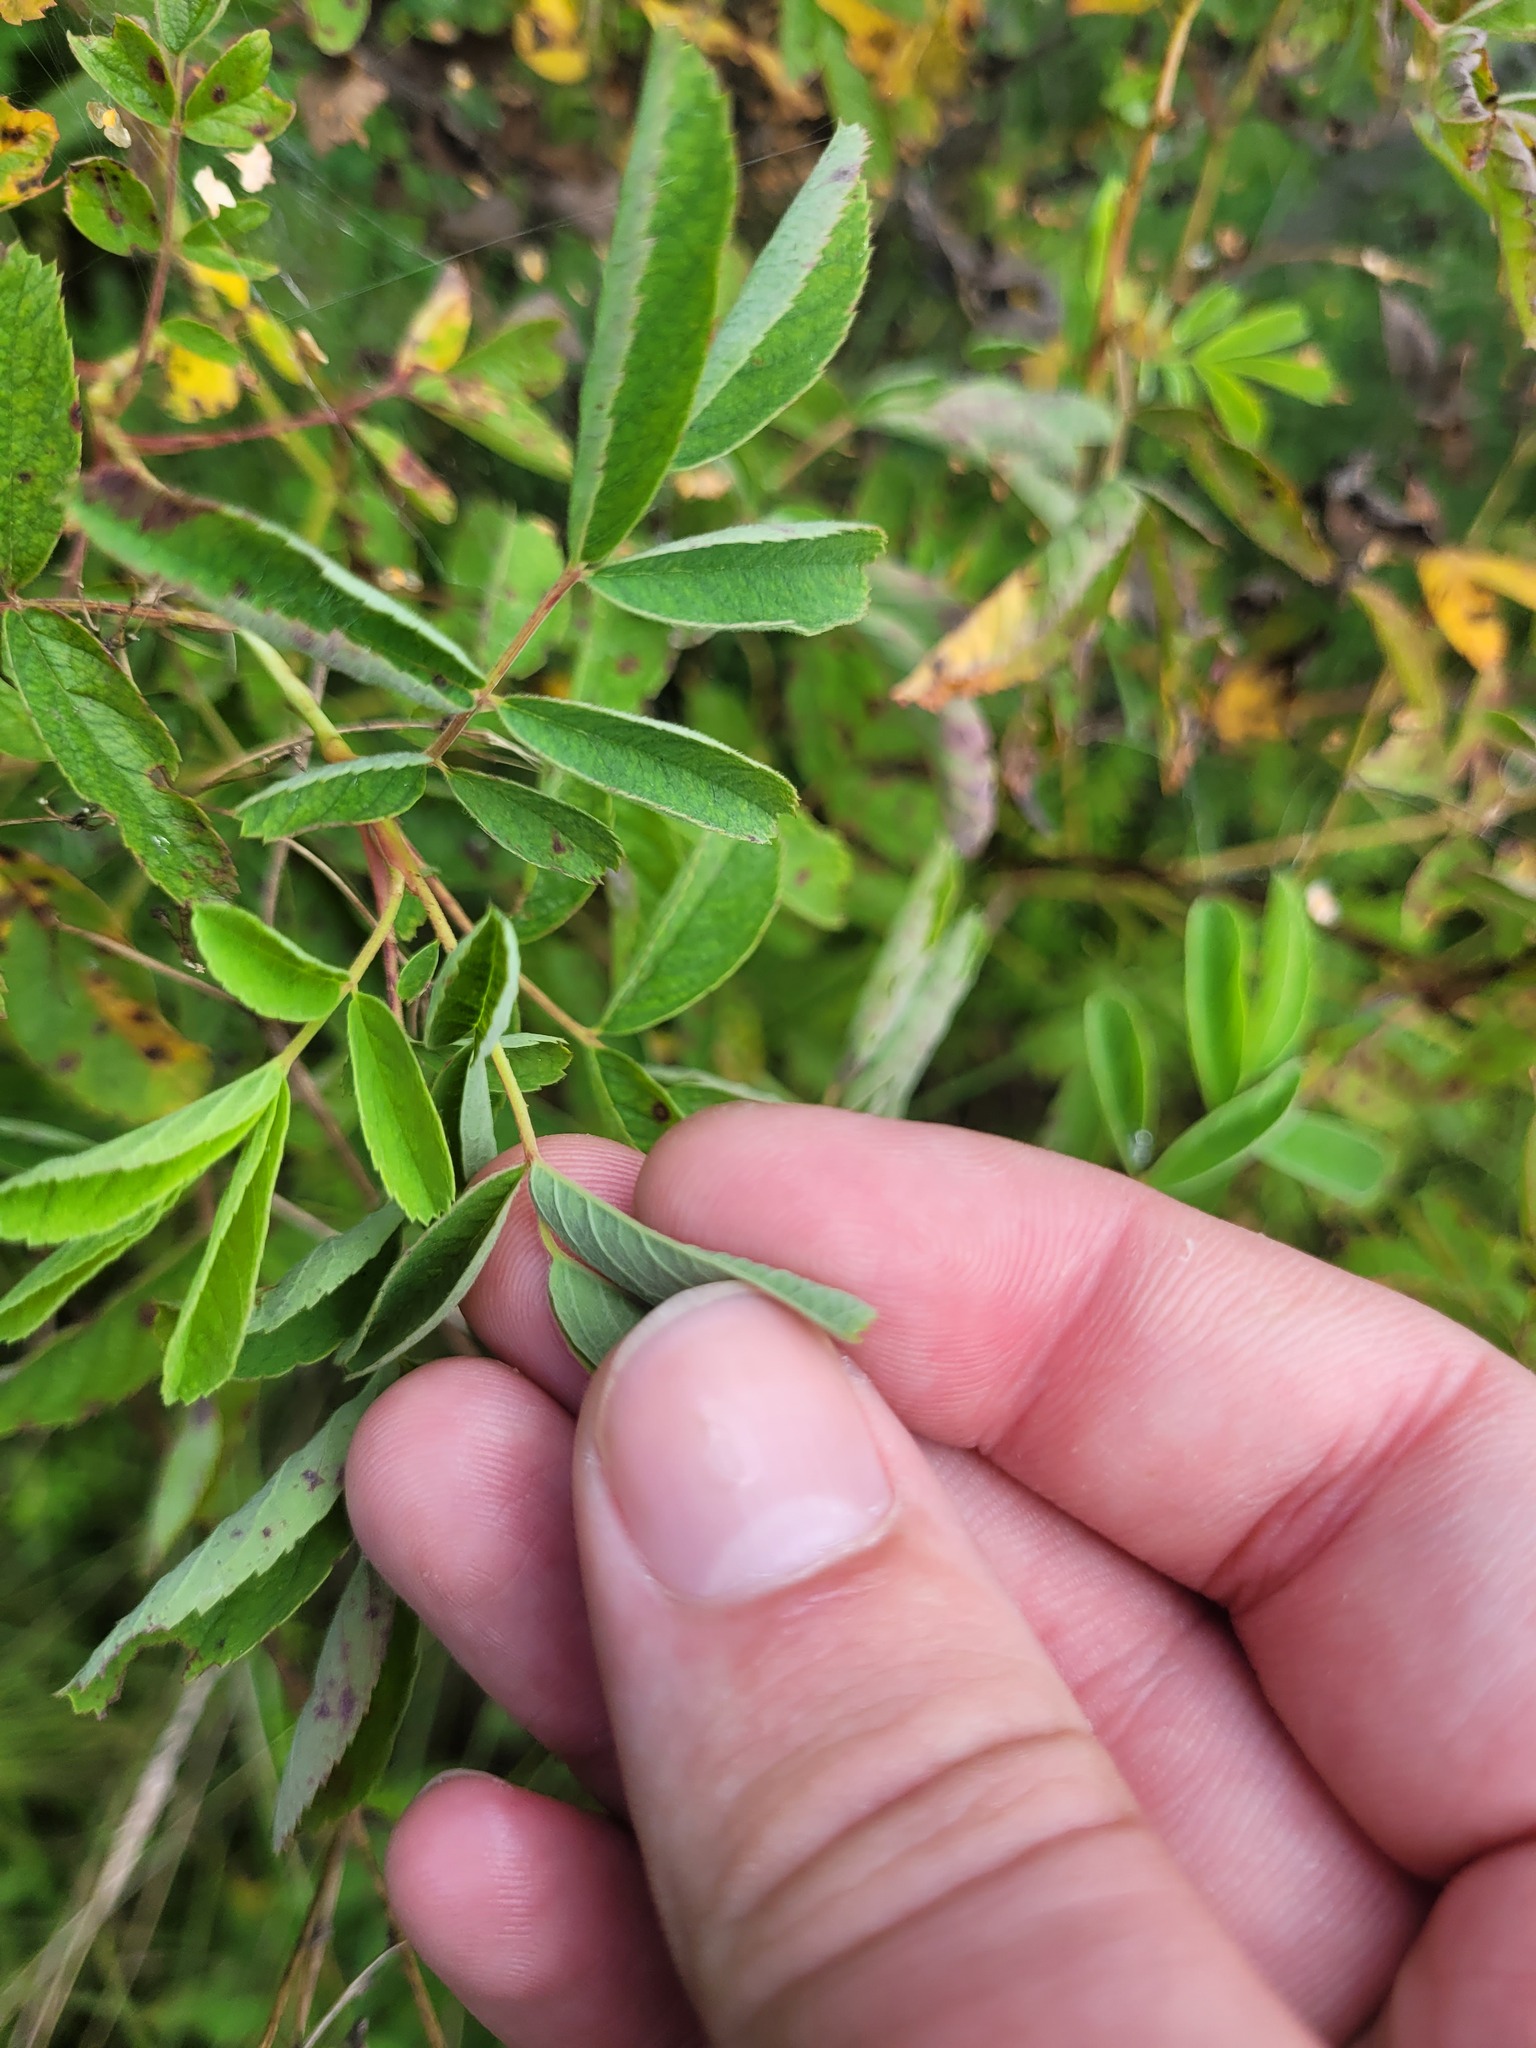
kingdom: Plantae
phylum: Tracheophyta
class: Magnoliopsida
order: Rosales
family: Rosaceae
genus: Rosa
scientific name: Rosa majalis
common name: Cinnamon rose
